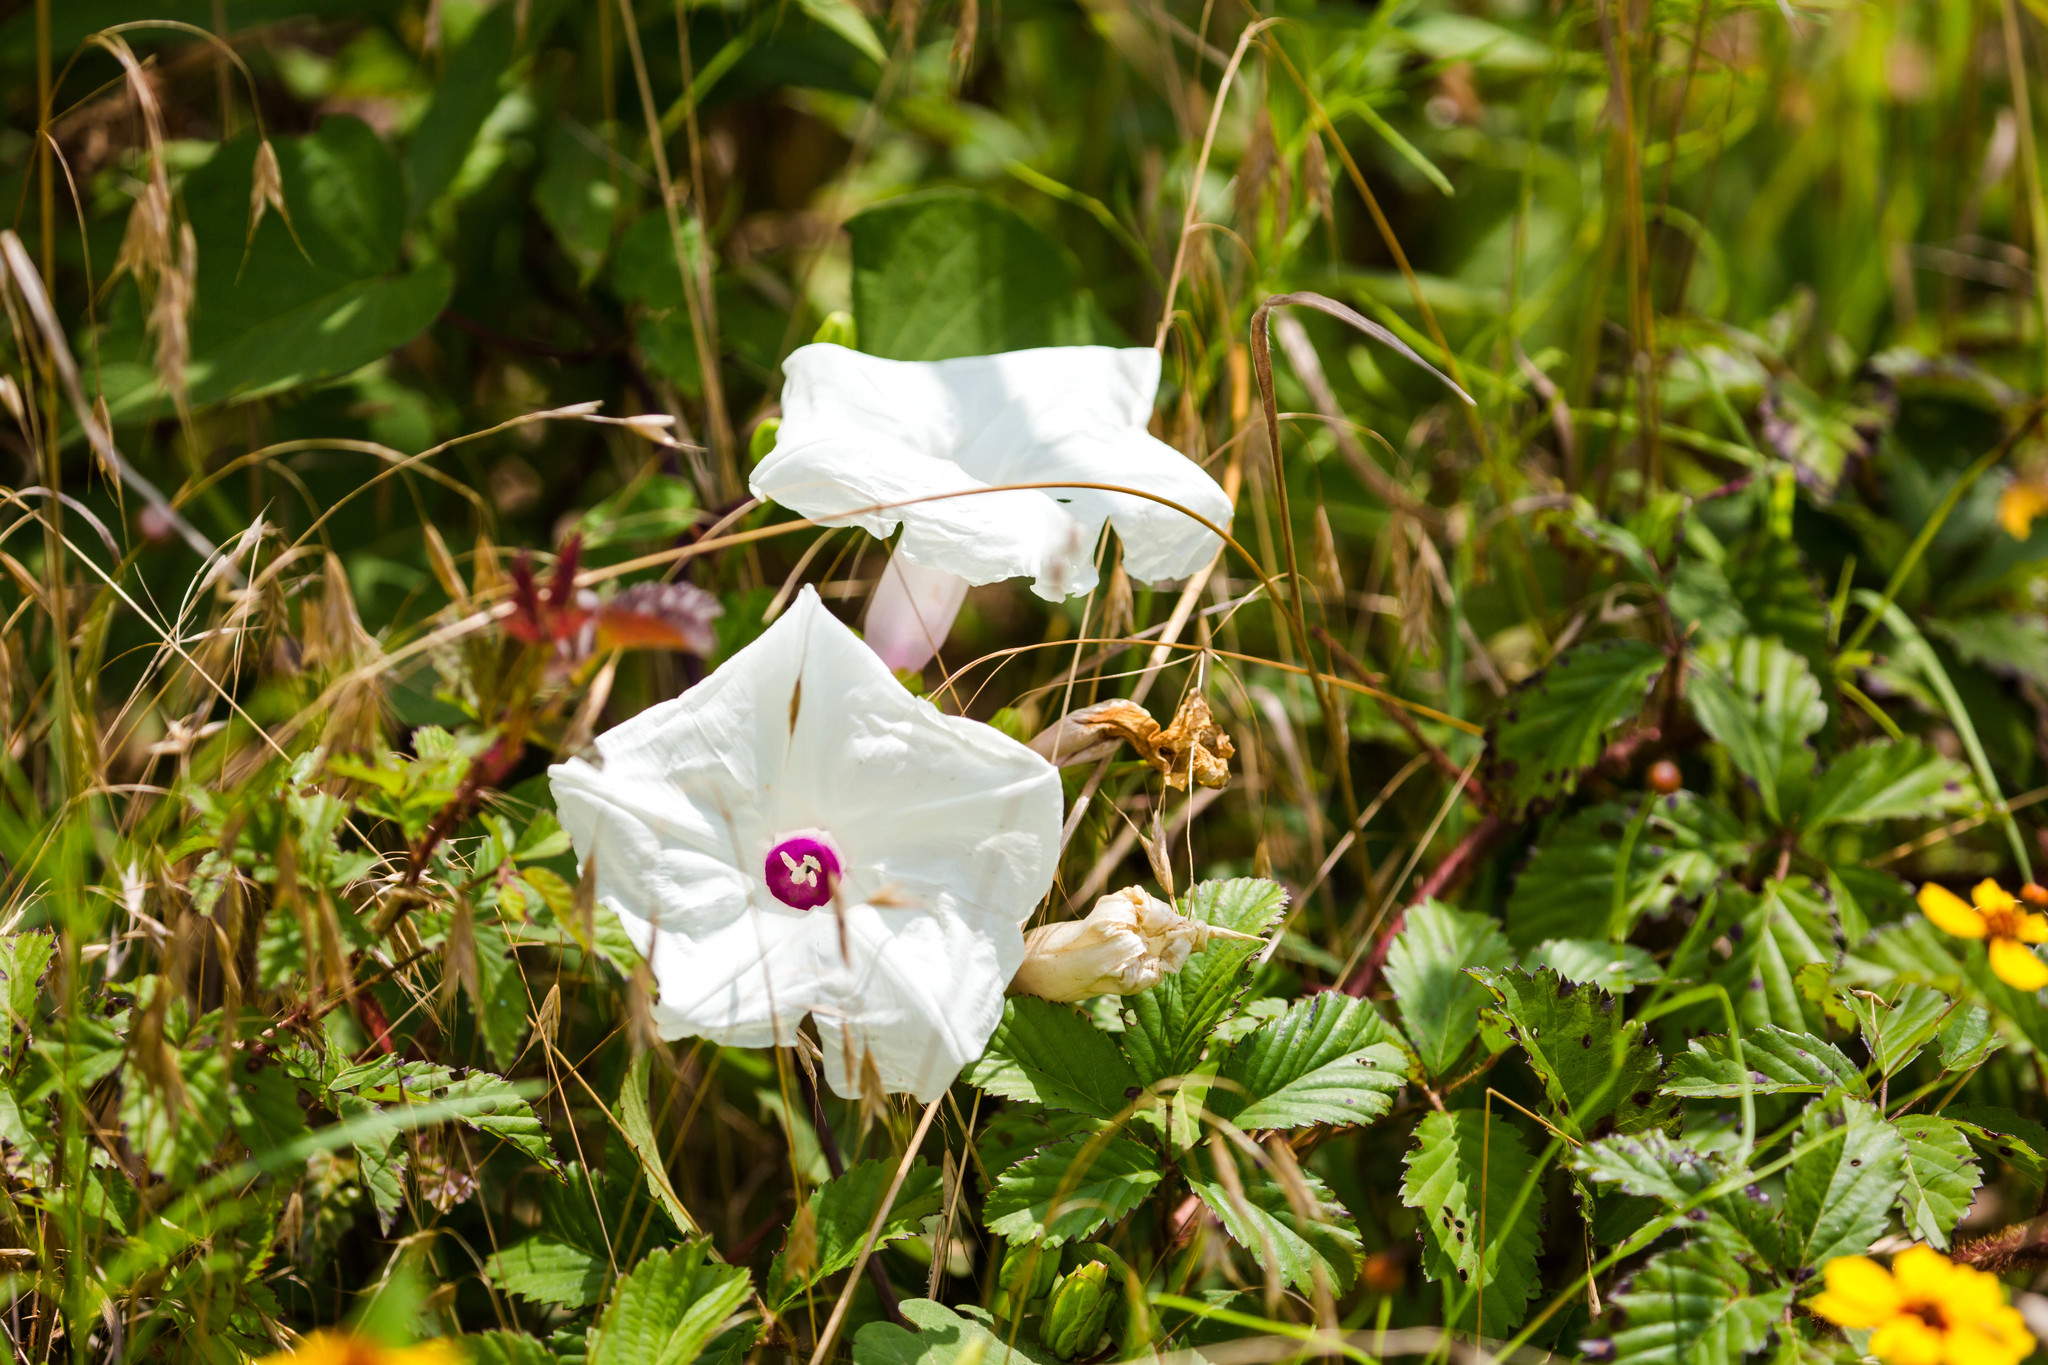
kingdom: Plantae
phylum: Tracheophyta
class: Magnoliopsida
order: Solanales
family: Convolvulaceae
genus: Ipomoea
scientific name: Ipomoea pandurata
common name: Man-of-the-earth
